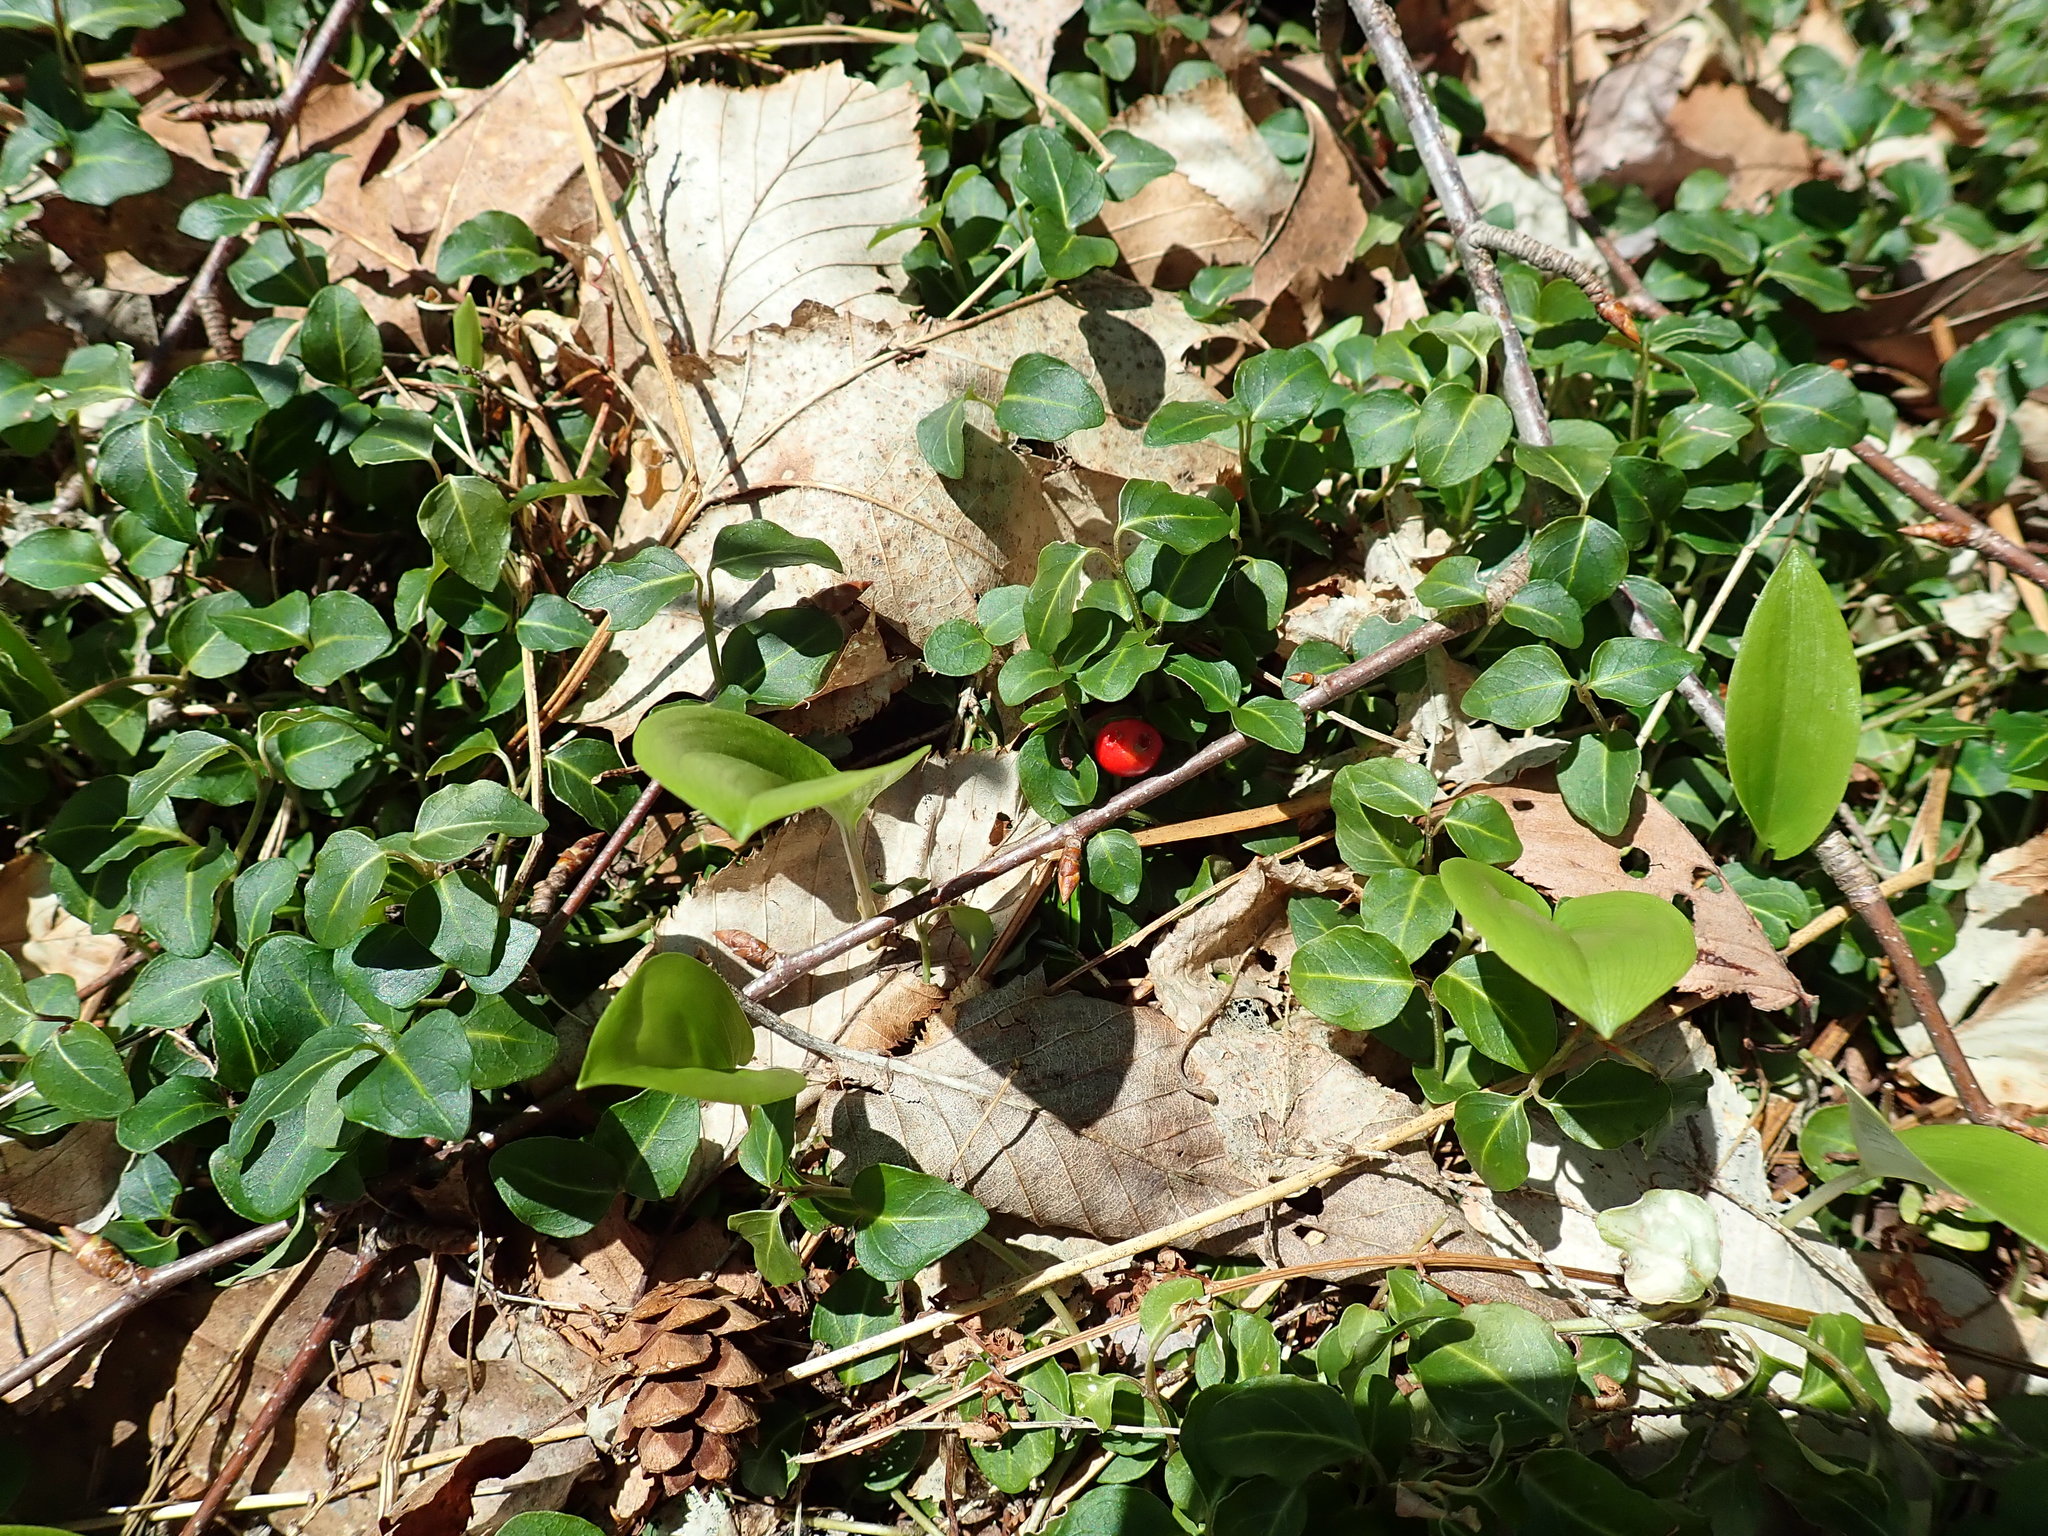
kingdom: Plantae
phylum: Tracheophyta
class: Magnoliopsida
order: Gentianales
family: Rubiaceae
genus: Mitchella
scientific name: Mitchella repens
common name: Partridge-berry
